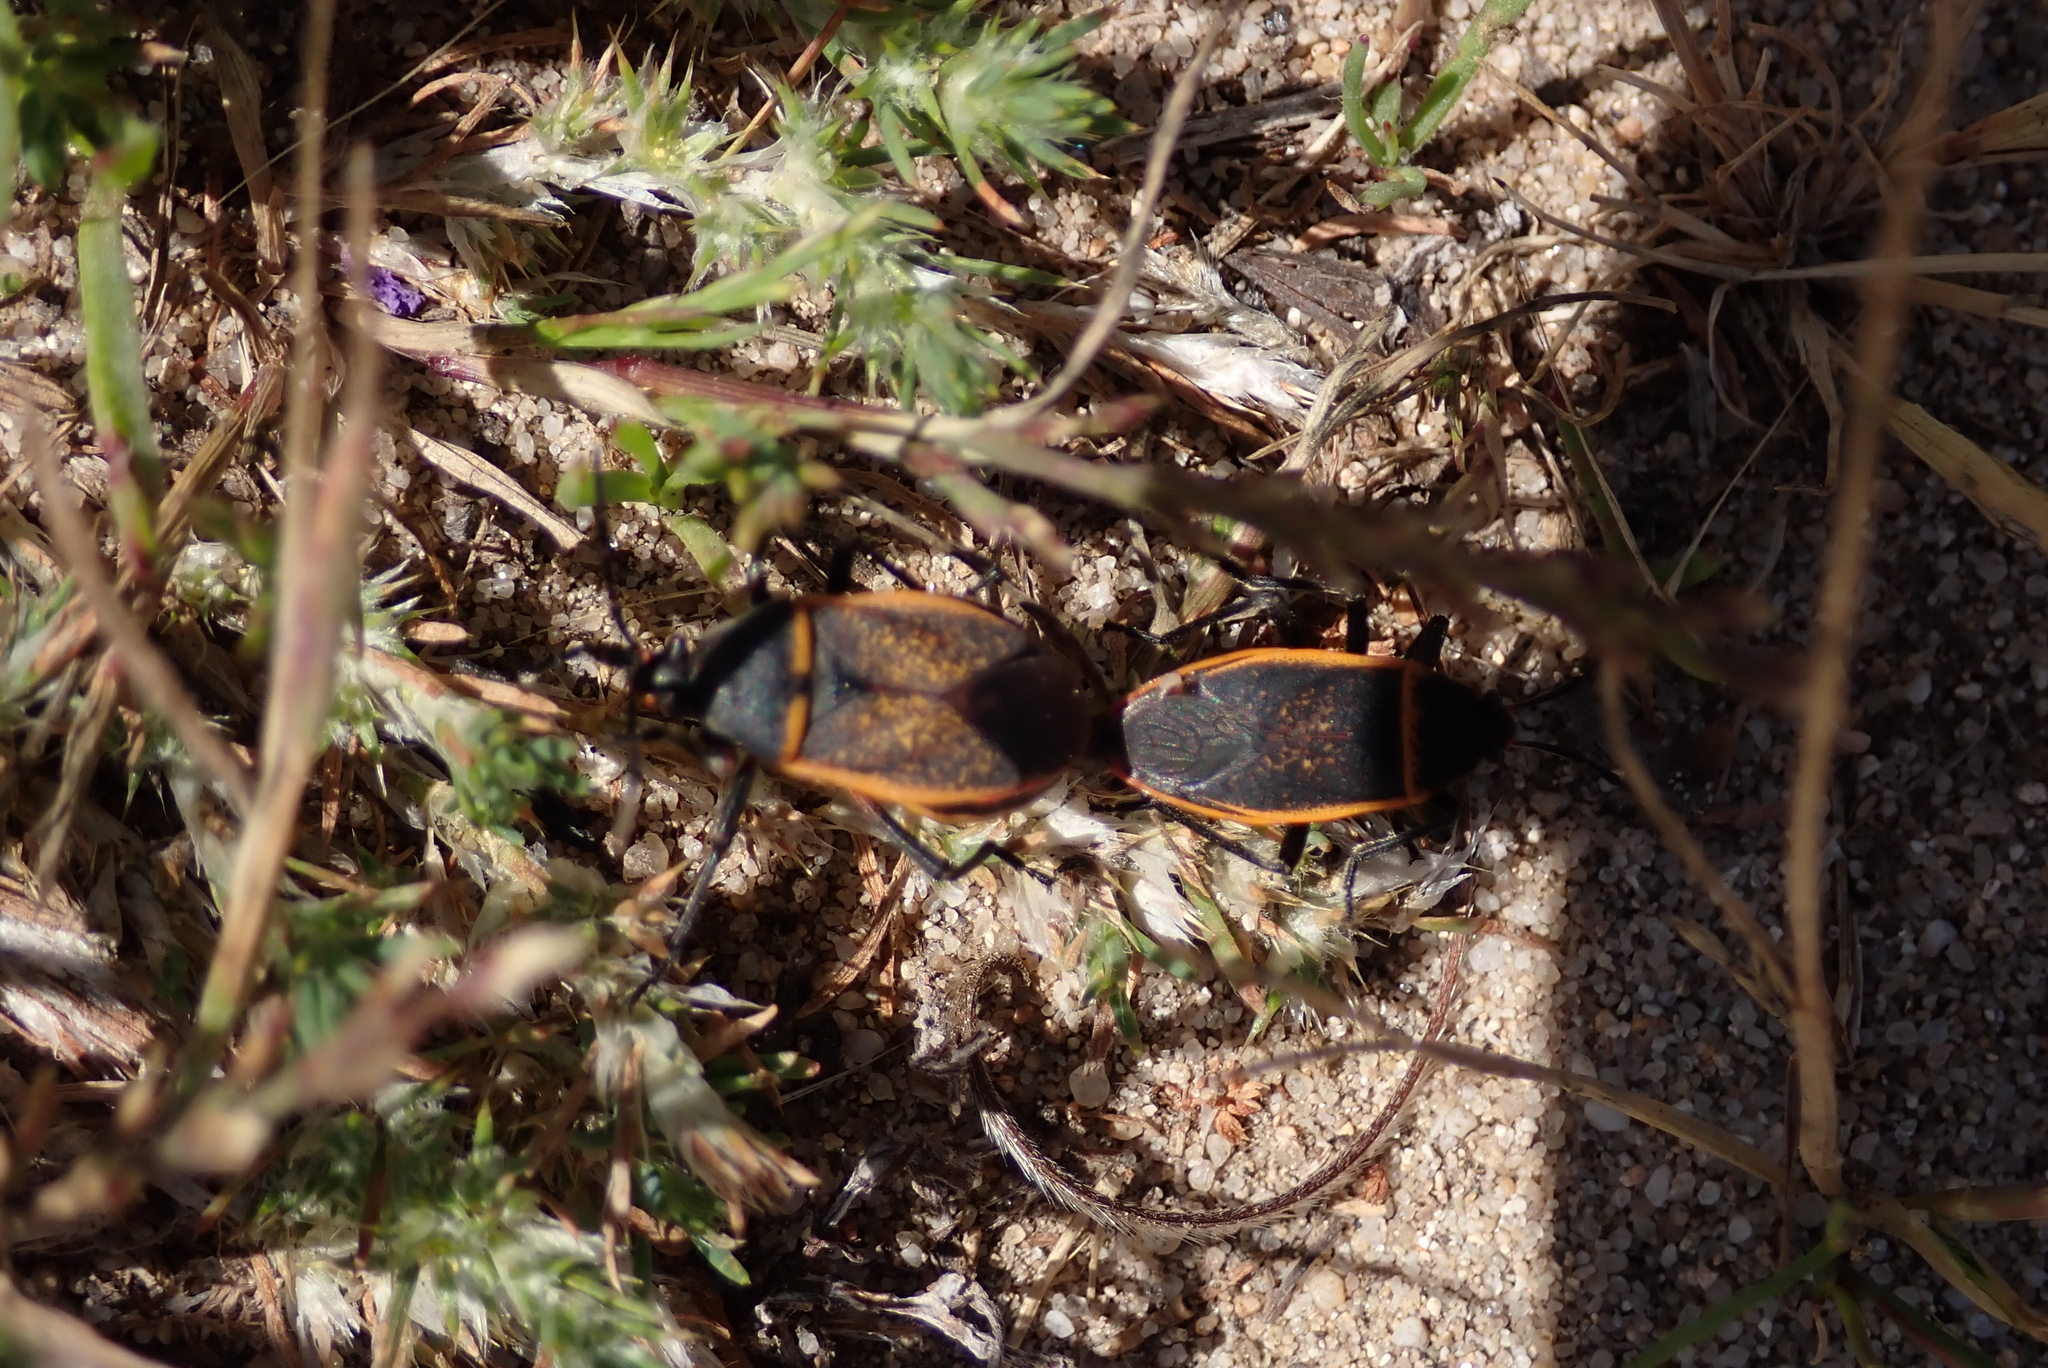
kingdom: Animalia
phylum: Arthropoda
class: Insecta
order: Hemiptera
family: Largidae
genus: Largus
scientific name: Largus californicus
